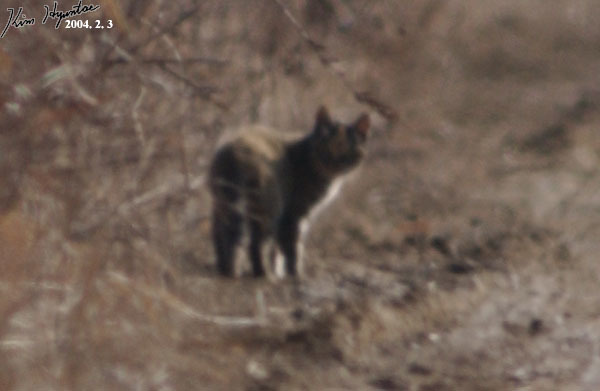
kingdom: Animalia
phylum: Chordata
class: Mammalia
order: Carnivora
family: Felidae
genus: Prionailurus
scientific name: Prionailurus bengalensis
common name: Leopard cat
